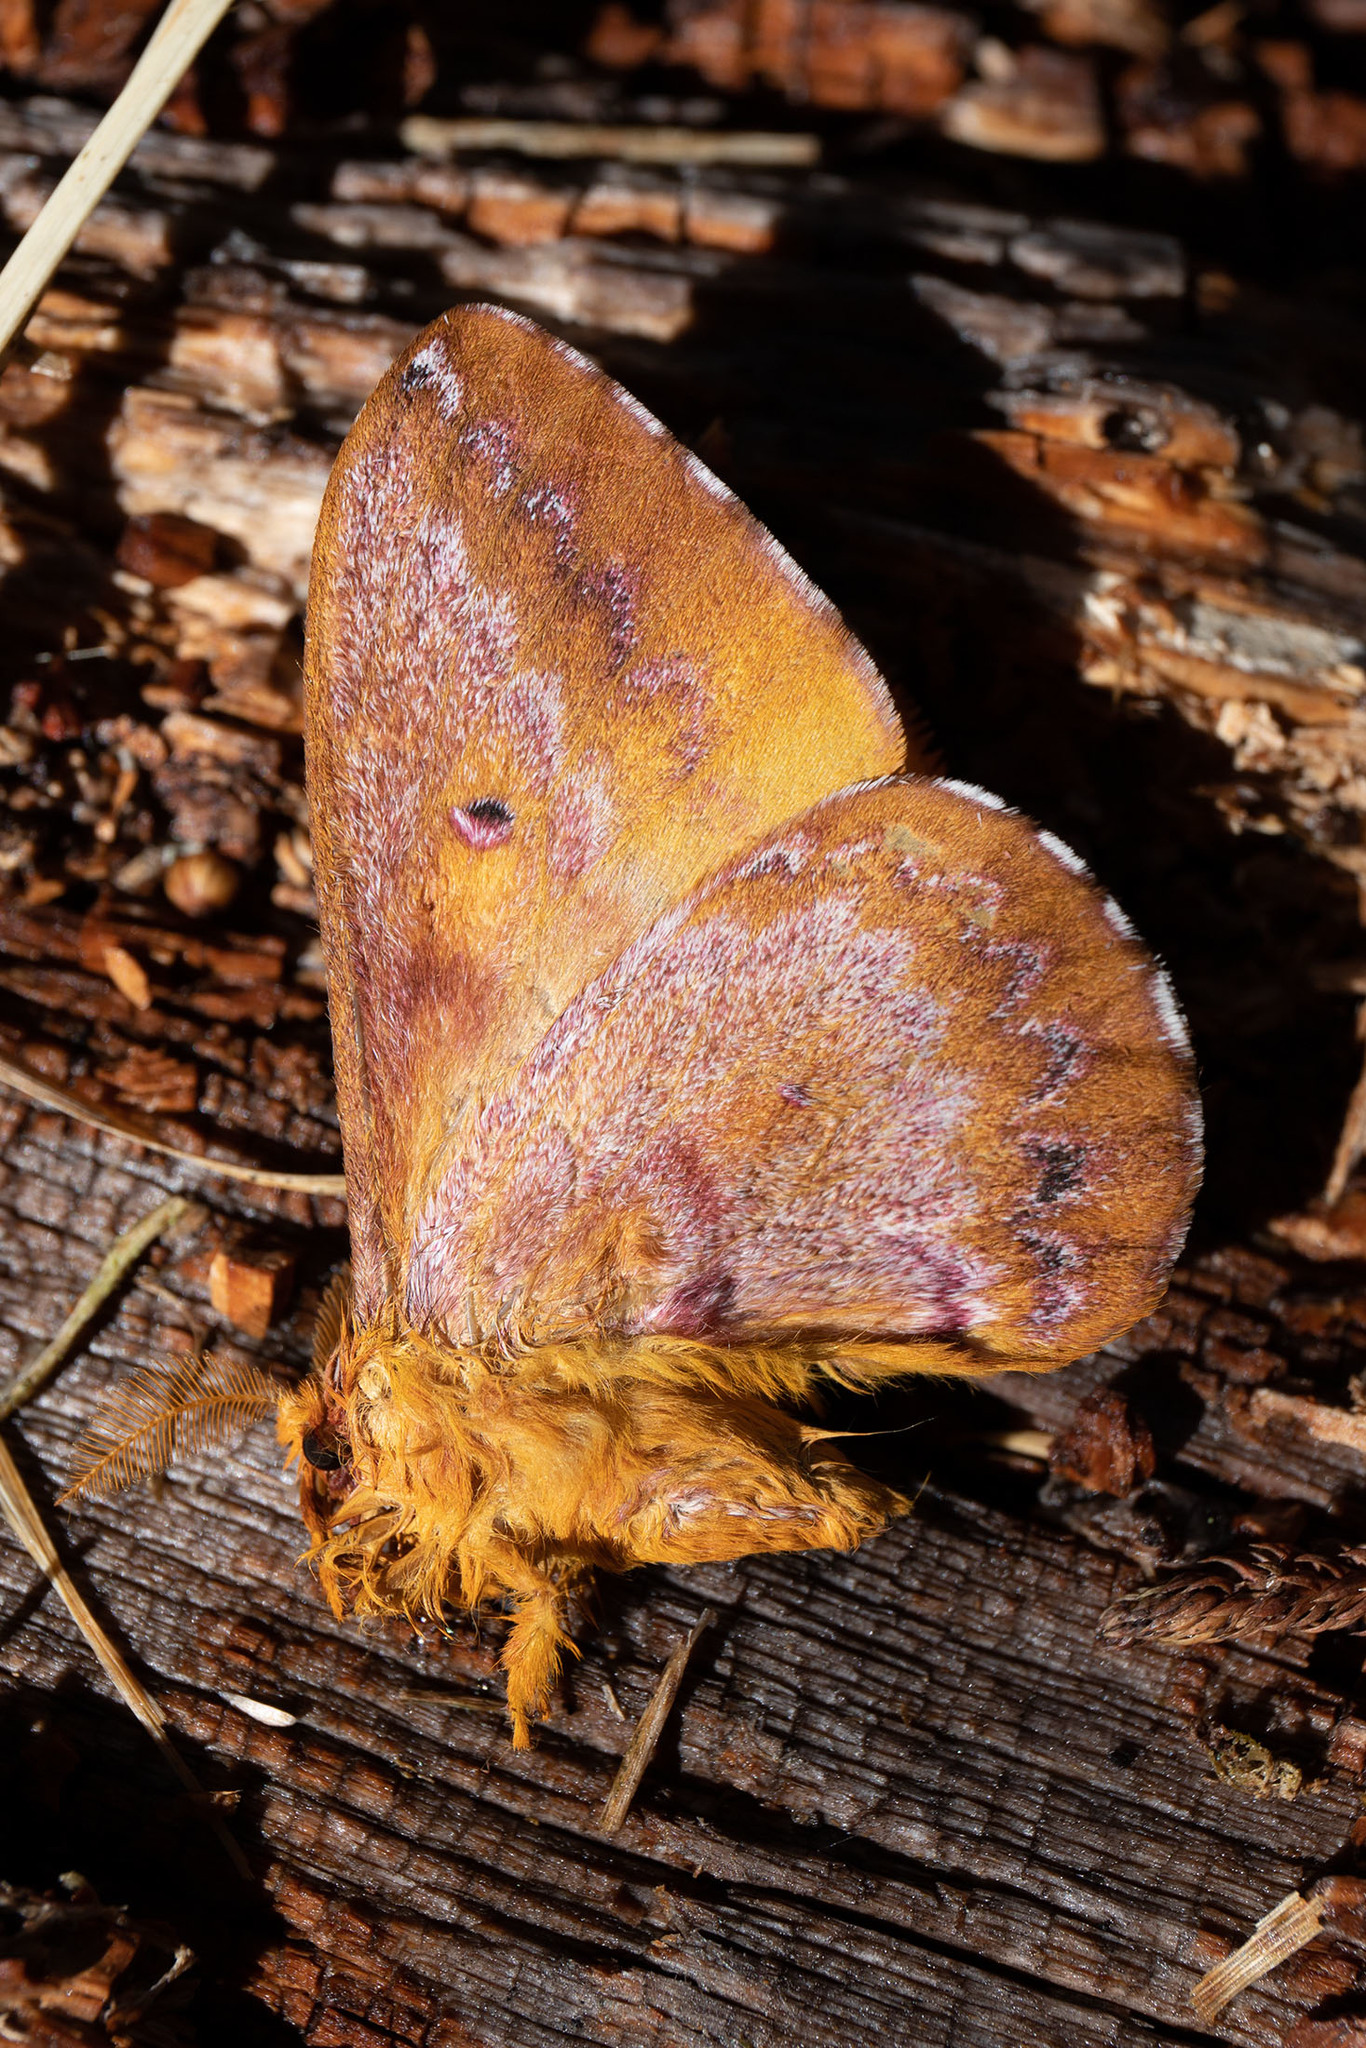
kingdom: Animalia
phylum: Arthropoda
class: Insecta
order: Lepidoptera
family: Saturniidae
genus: Neodiphthera
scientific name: Neodiphthera schaarschmidti
